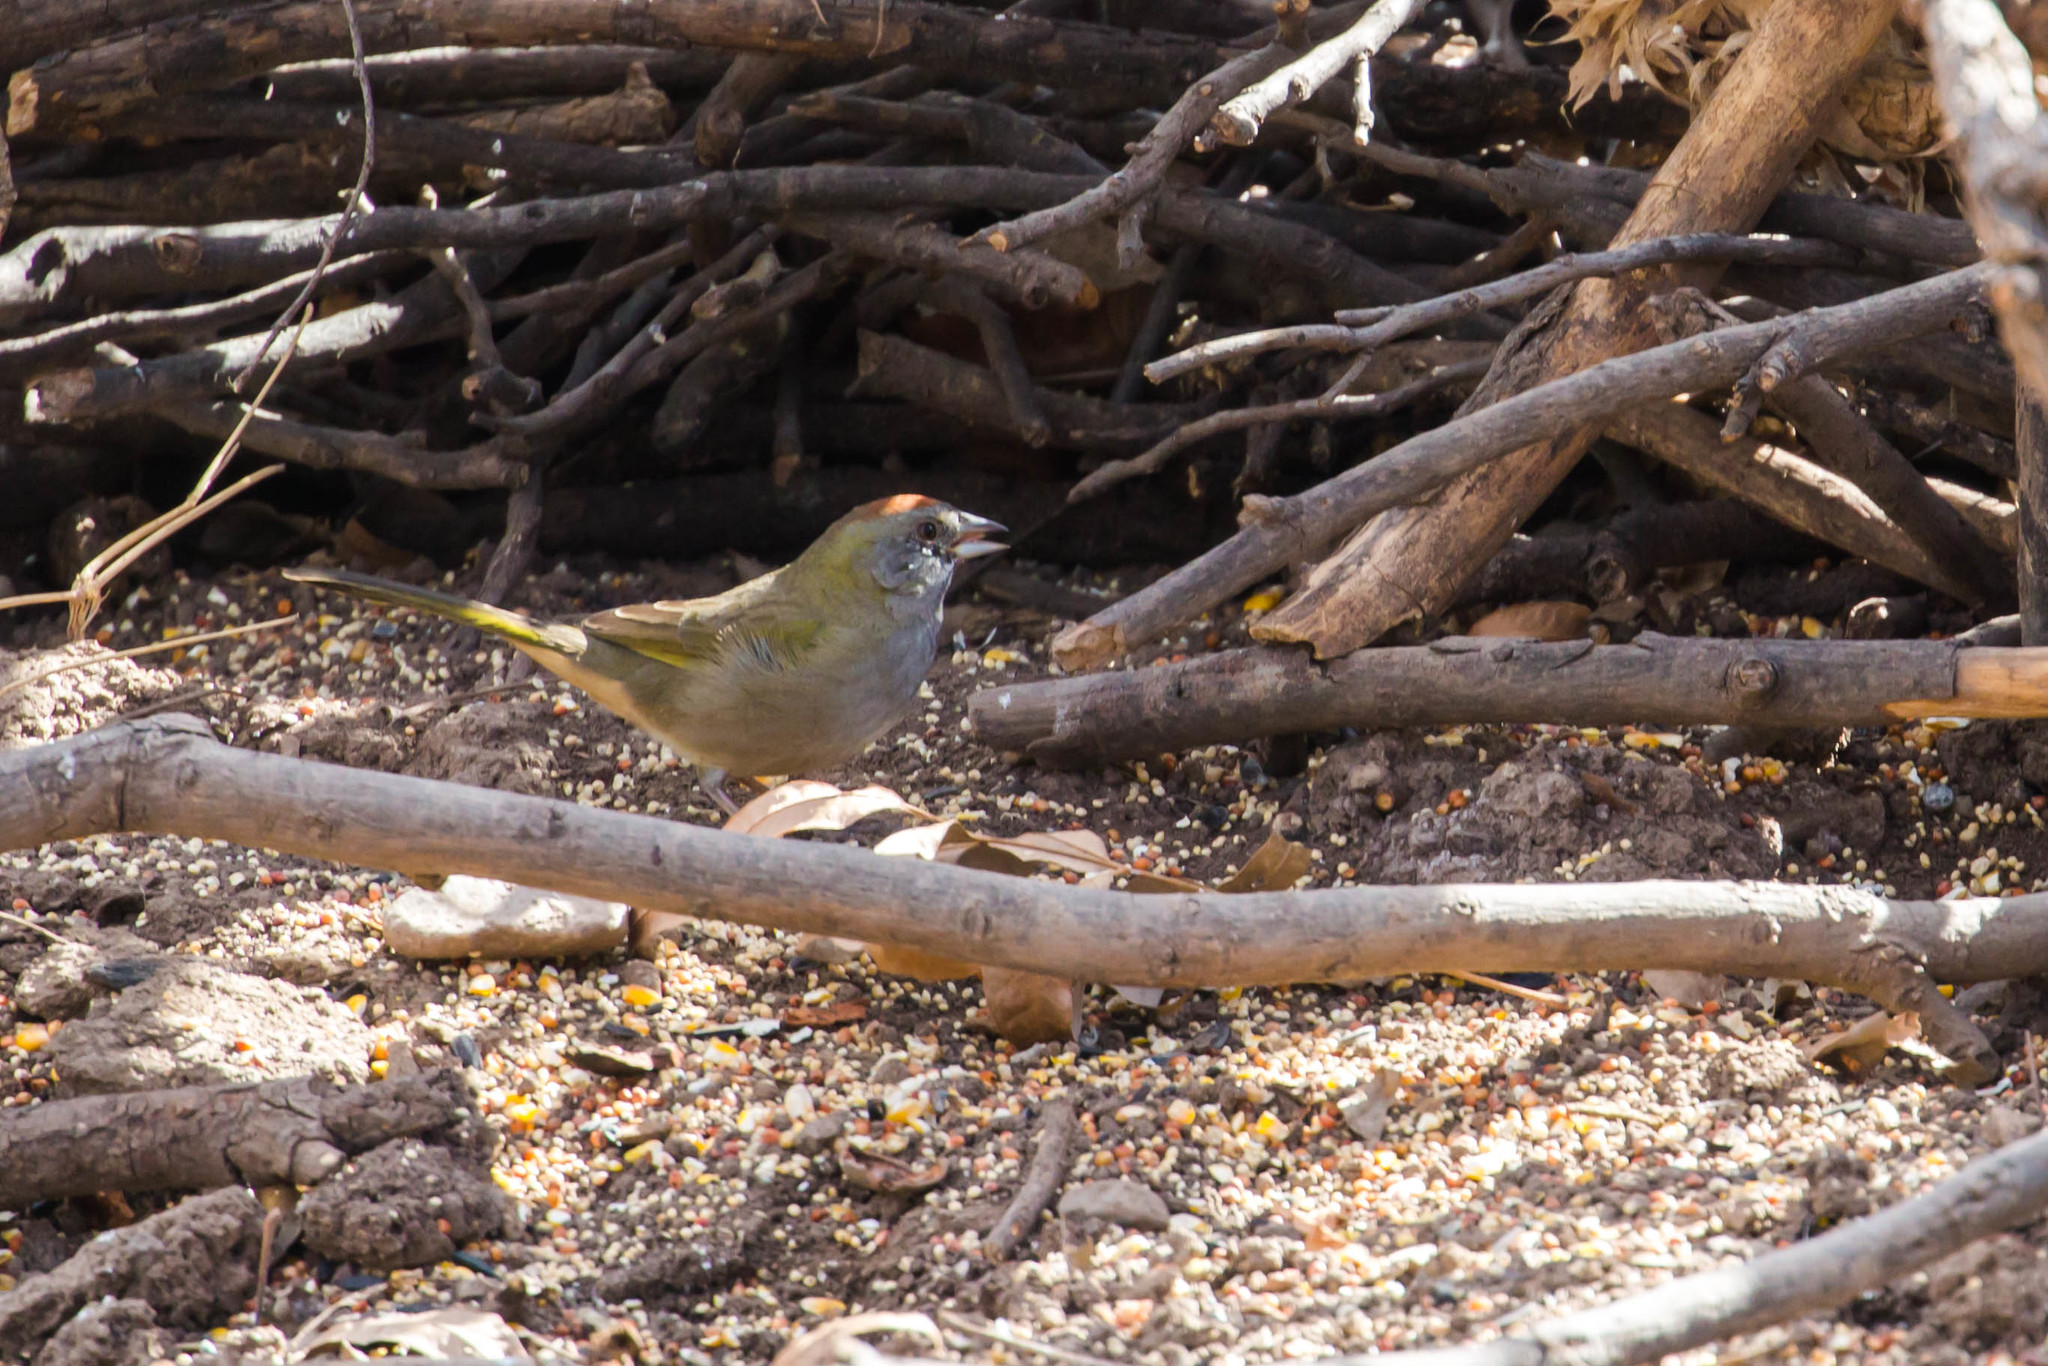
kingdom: Animalia
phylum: Chordata
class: Aves
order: Passeriformes
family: Passerellidae
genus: Pipilo
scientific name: Pipilo chlorurus
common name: Green-tailed towhee
